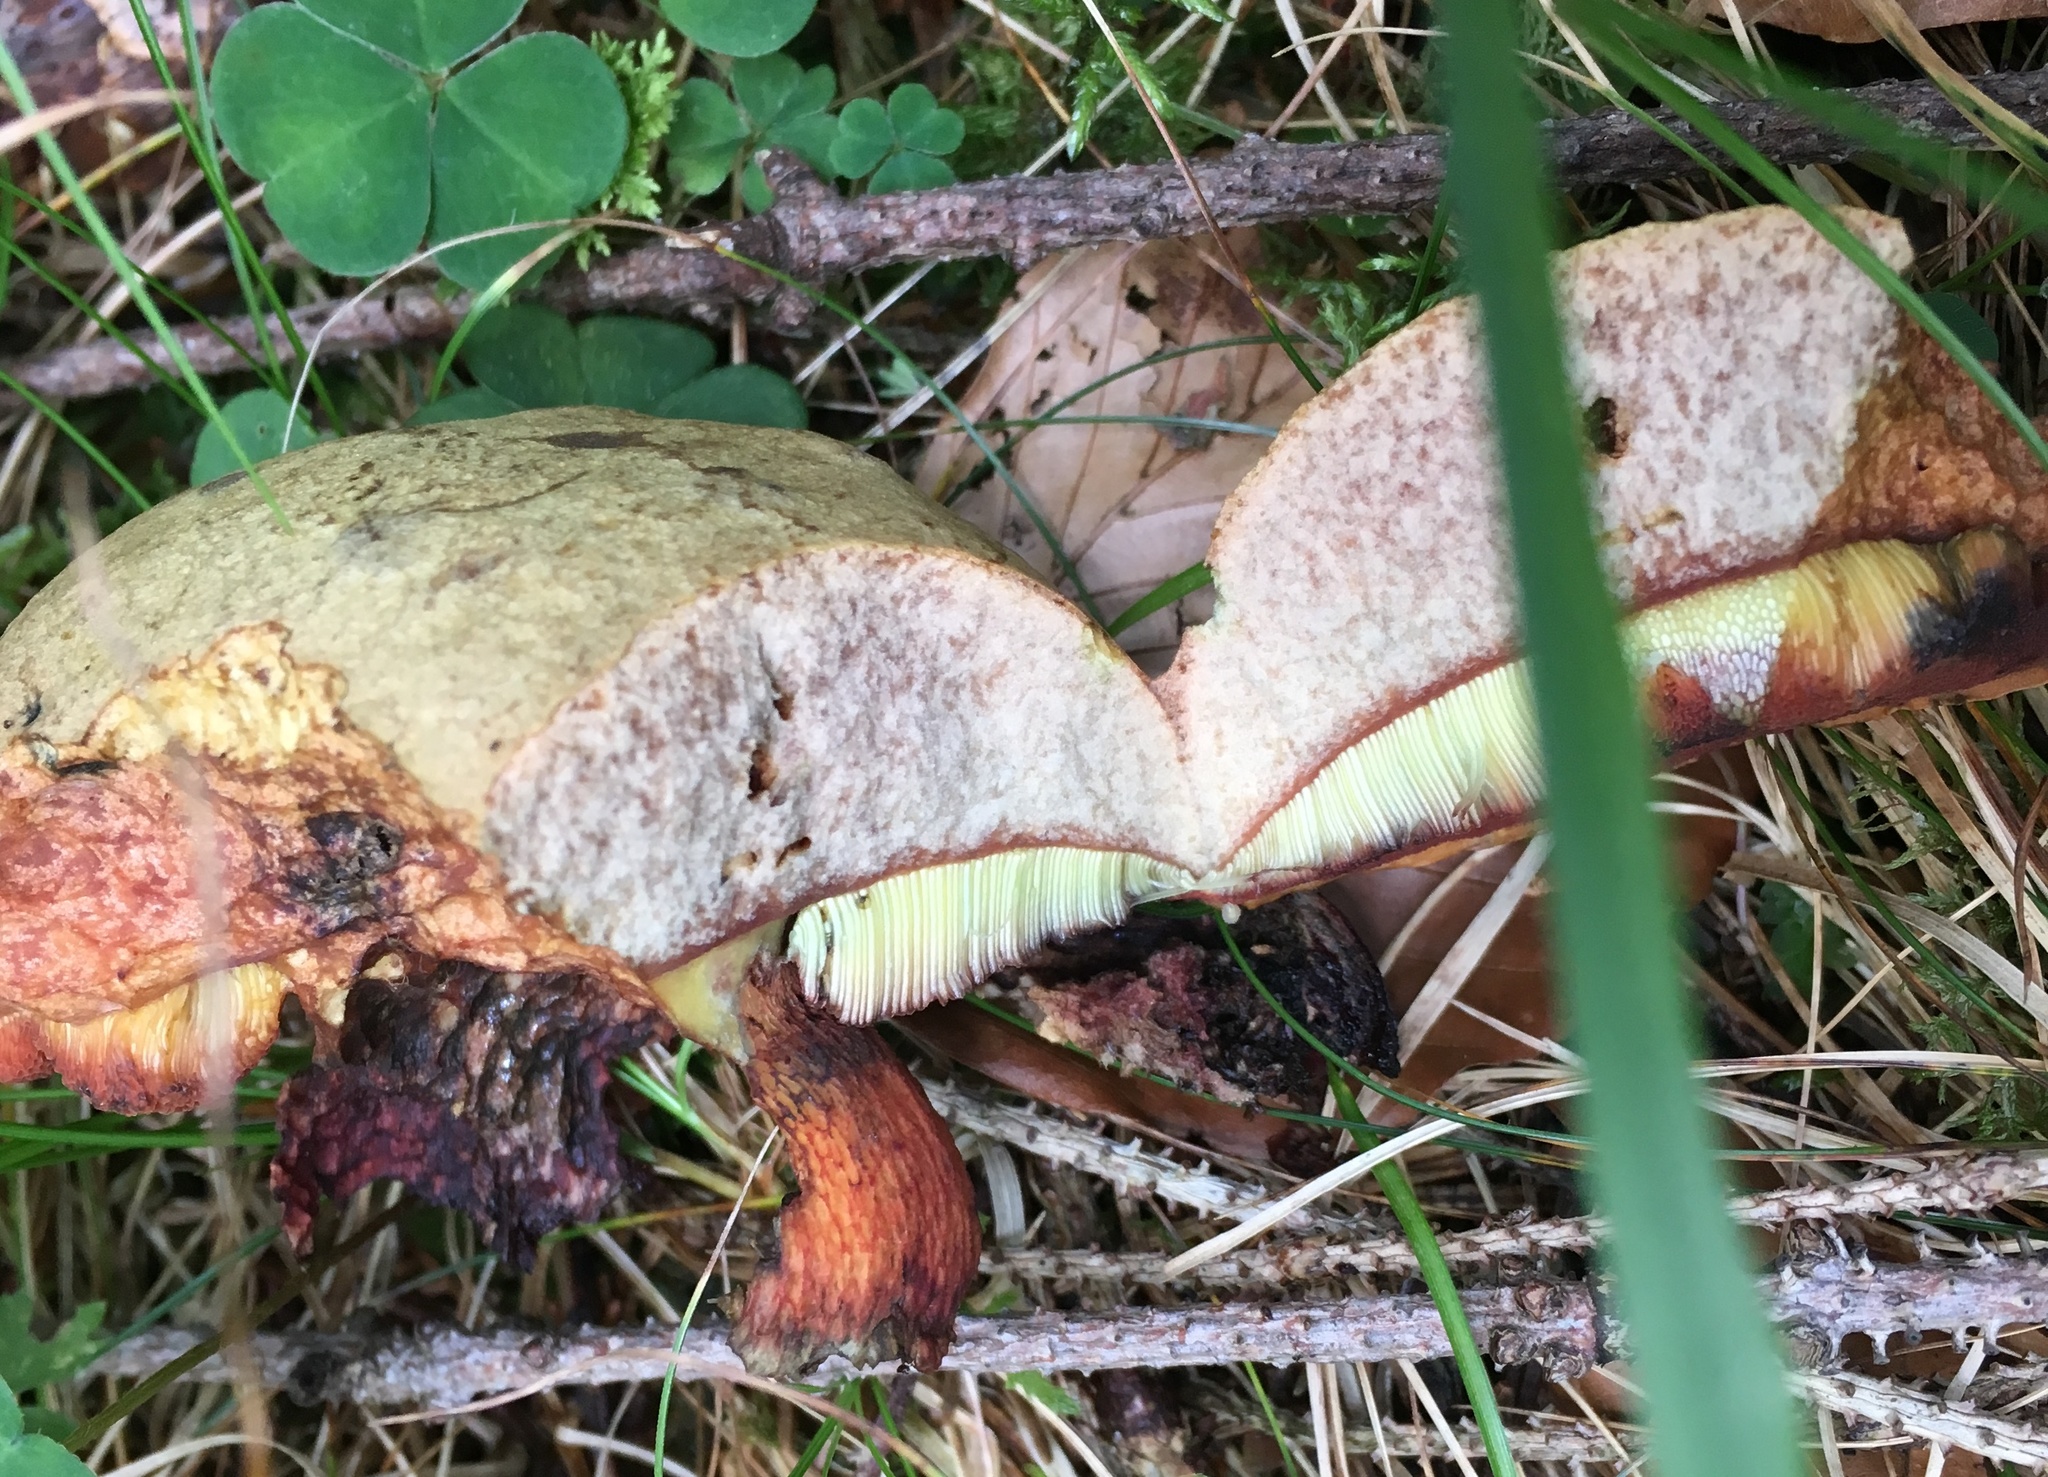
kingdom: Fungi
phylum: Basidiomycota
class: Agaricomycetes
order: Boletales
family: Boletaceae
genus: Suillellus
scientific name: Suillellus luridus
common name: Lurid bolete
